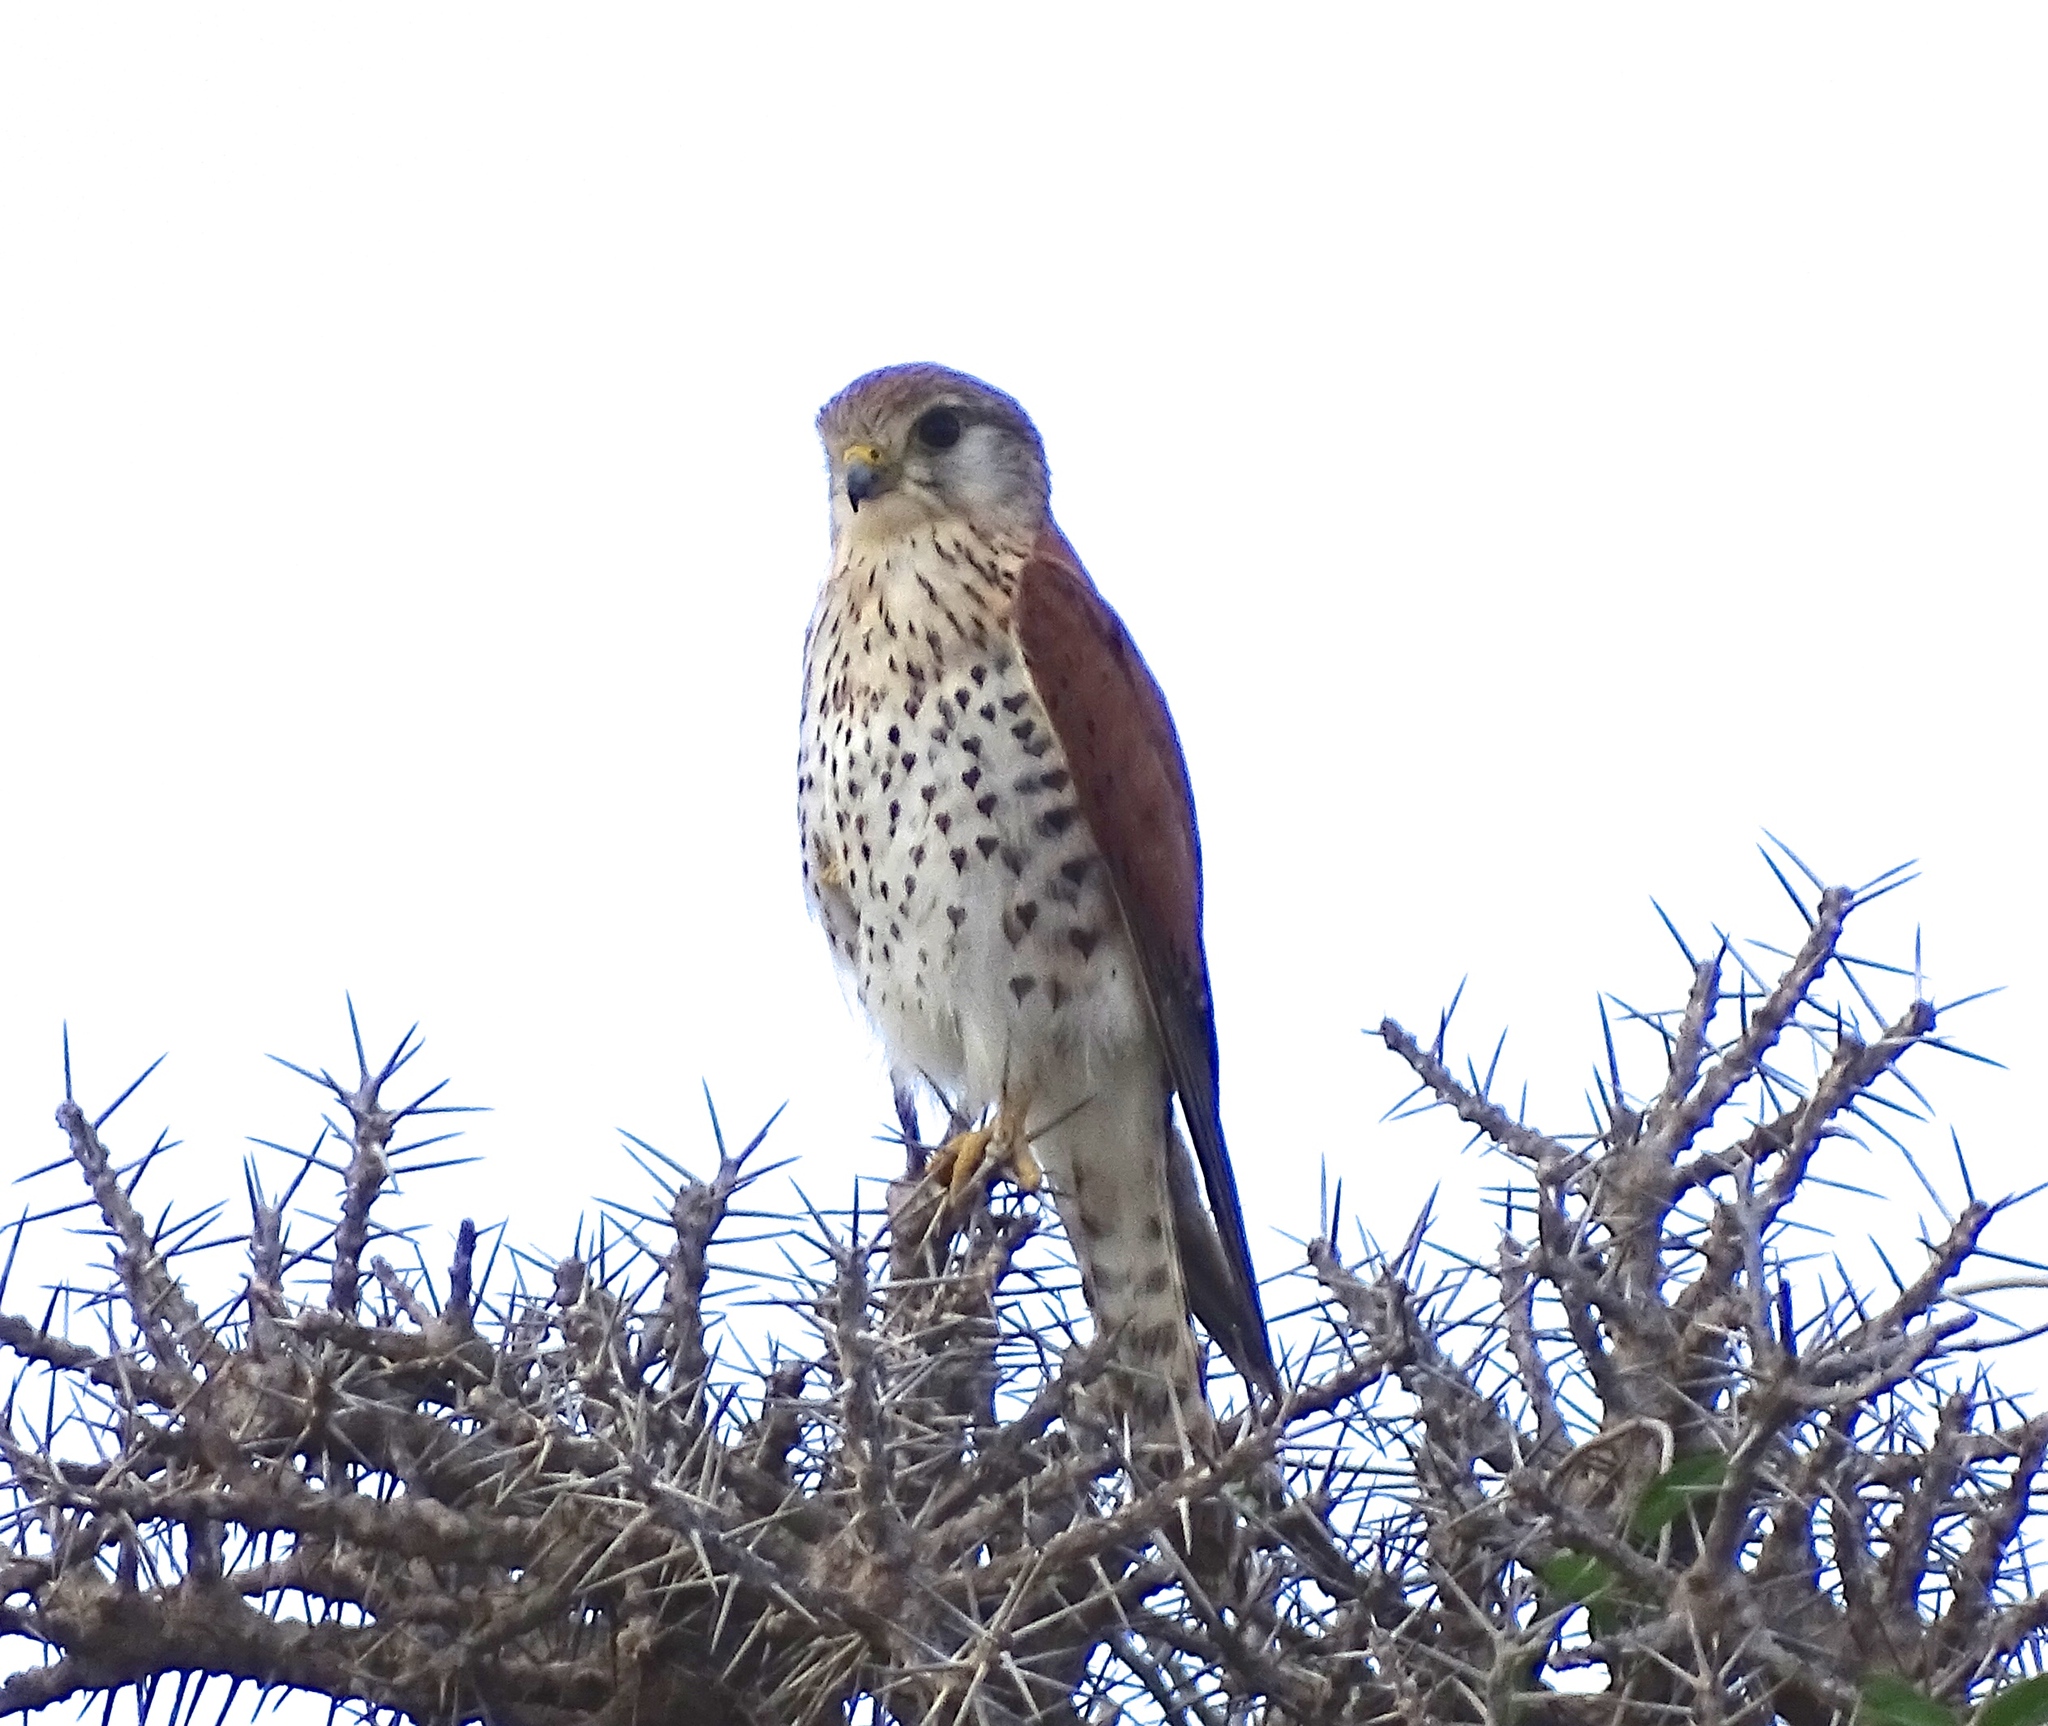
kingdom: Animalia
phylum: Chordata
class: Aves
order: Falconiformes
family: Falconidae
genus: Falco
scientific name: Falco newtoni
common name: Malagasy kestrel
